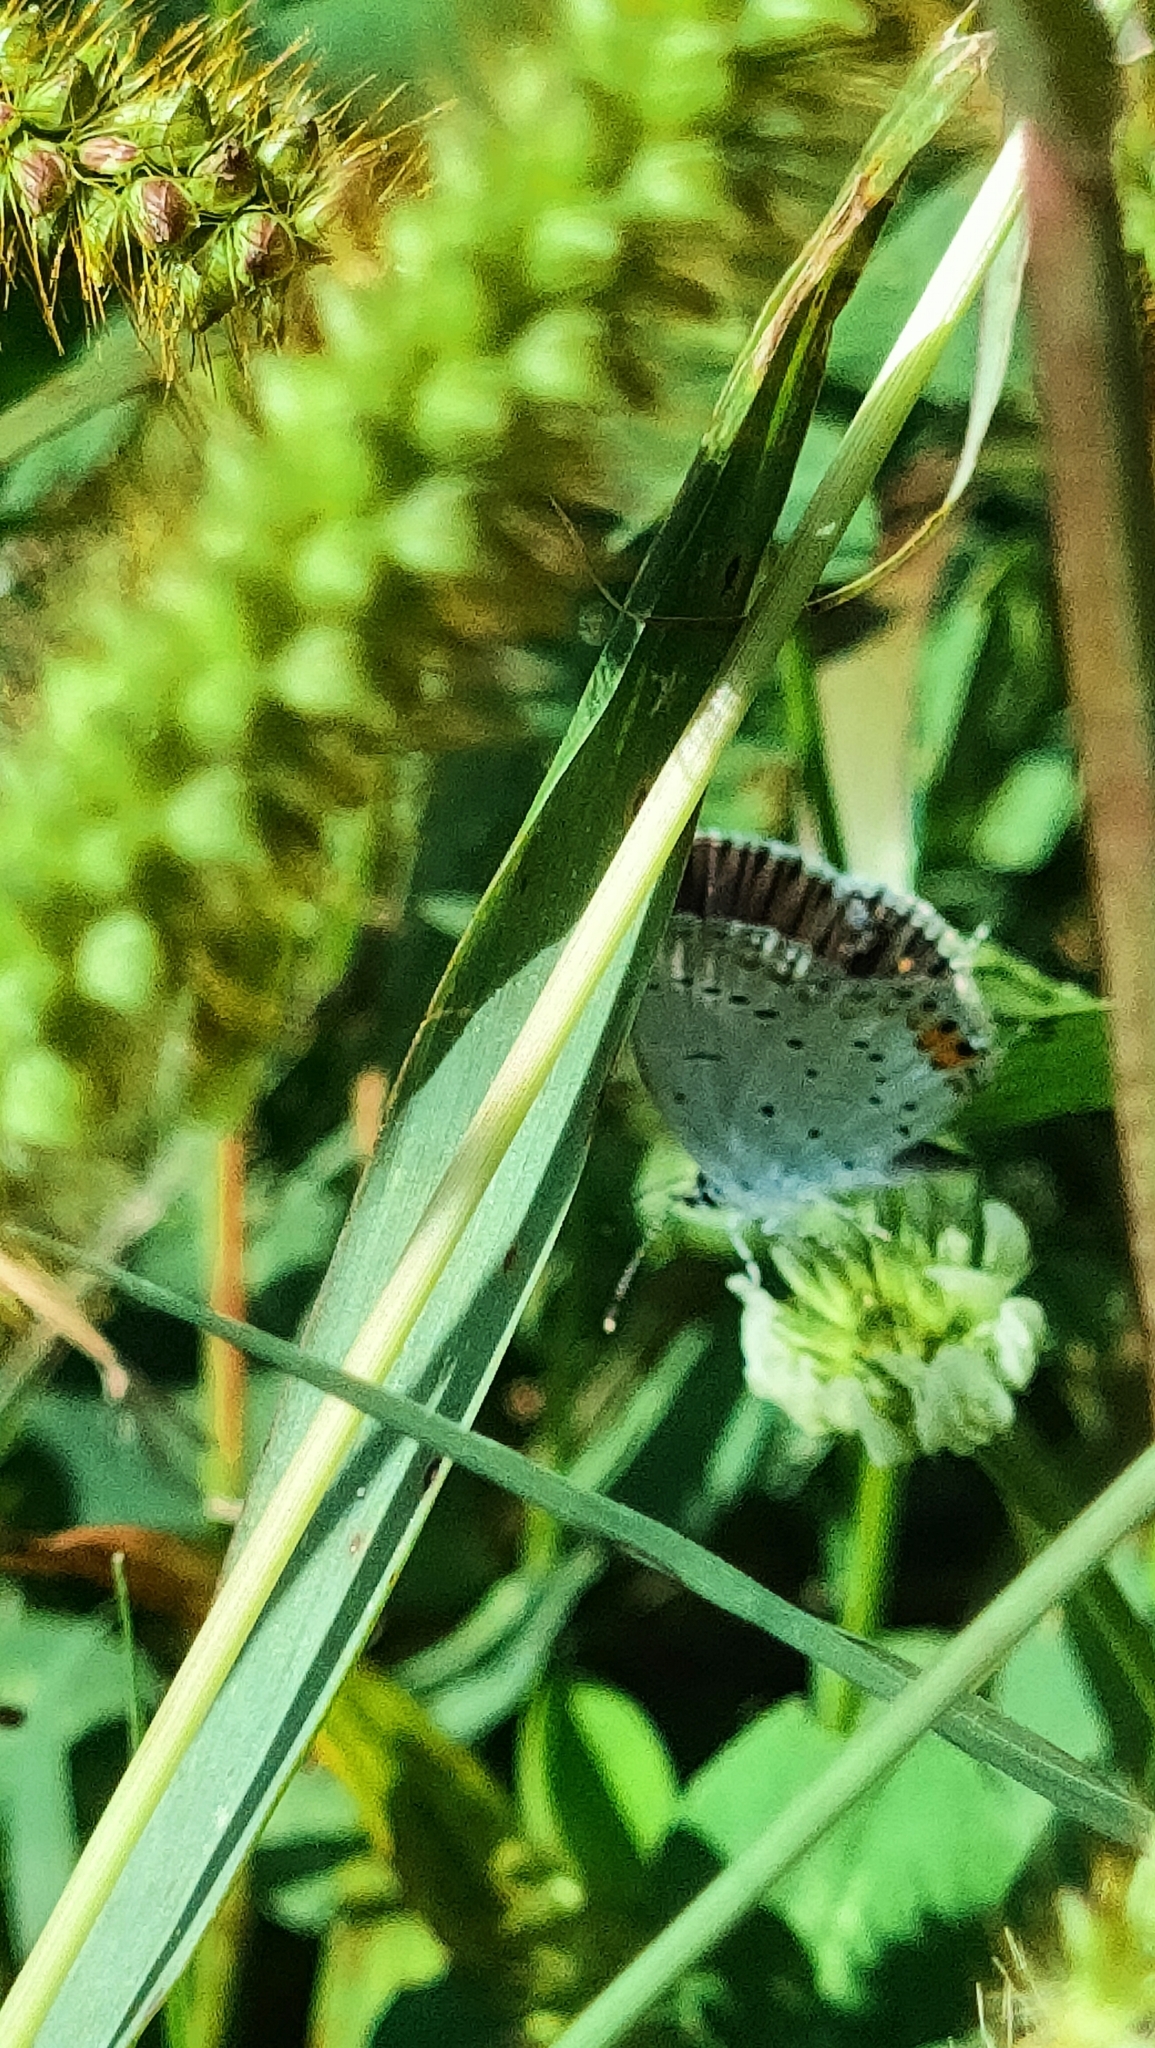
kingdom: Animalia
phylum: Arthropoda
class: Insecta
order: Lepidoptera
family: Lycaenidae
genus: Elkalyce
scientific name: Elkalyce argiades
